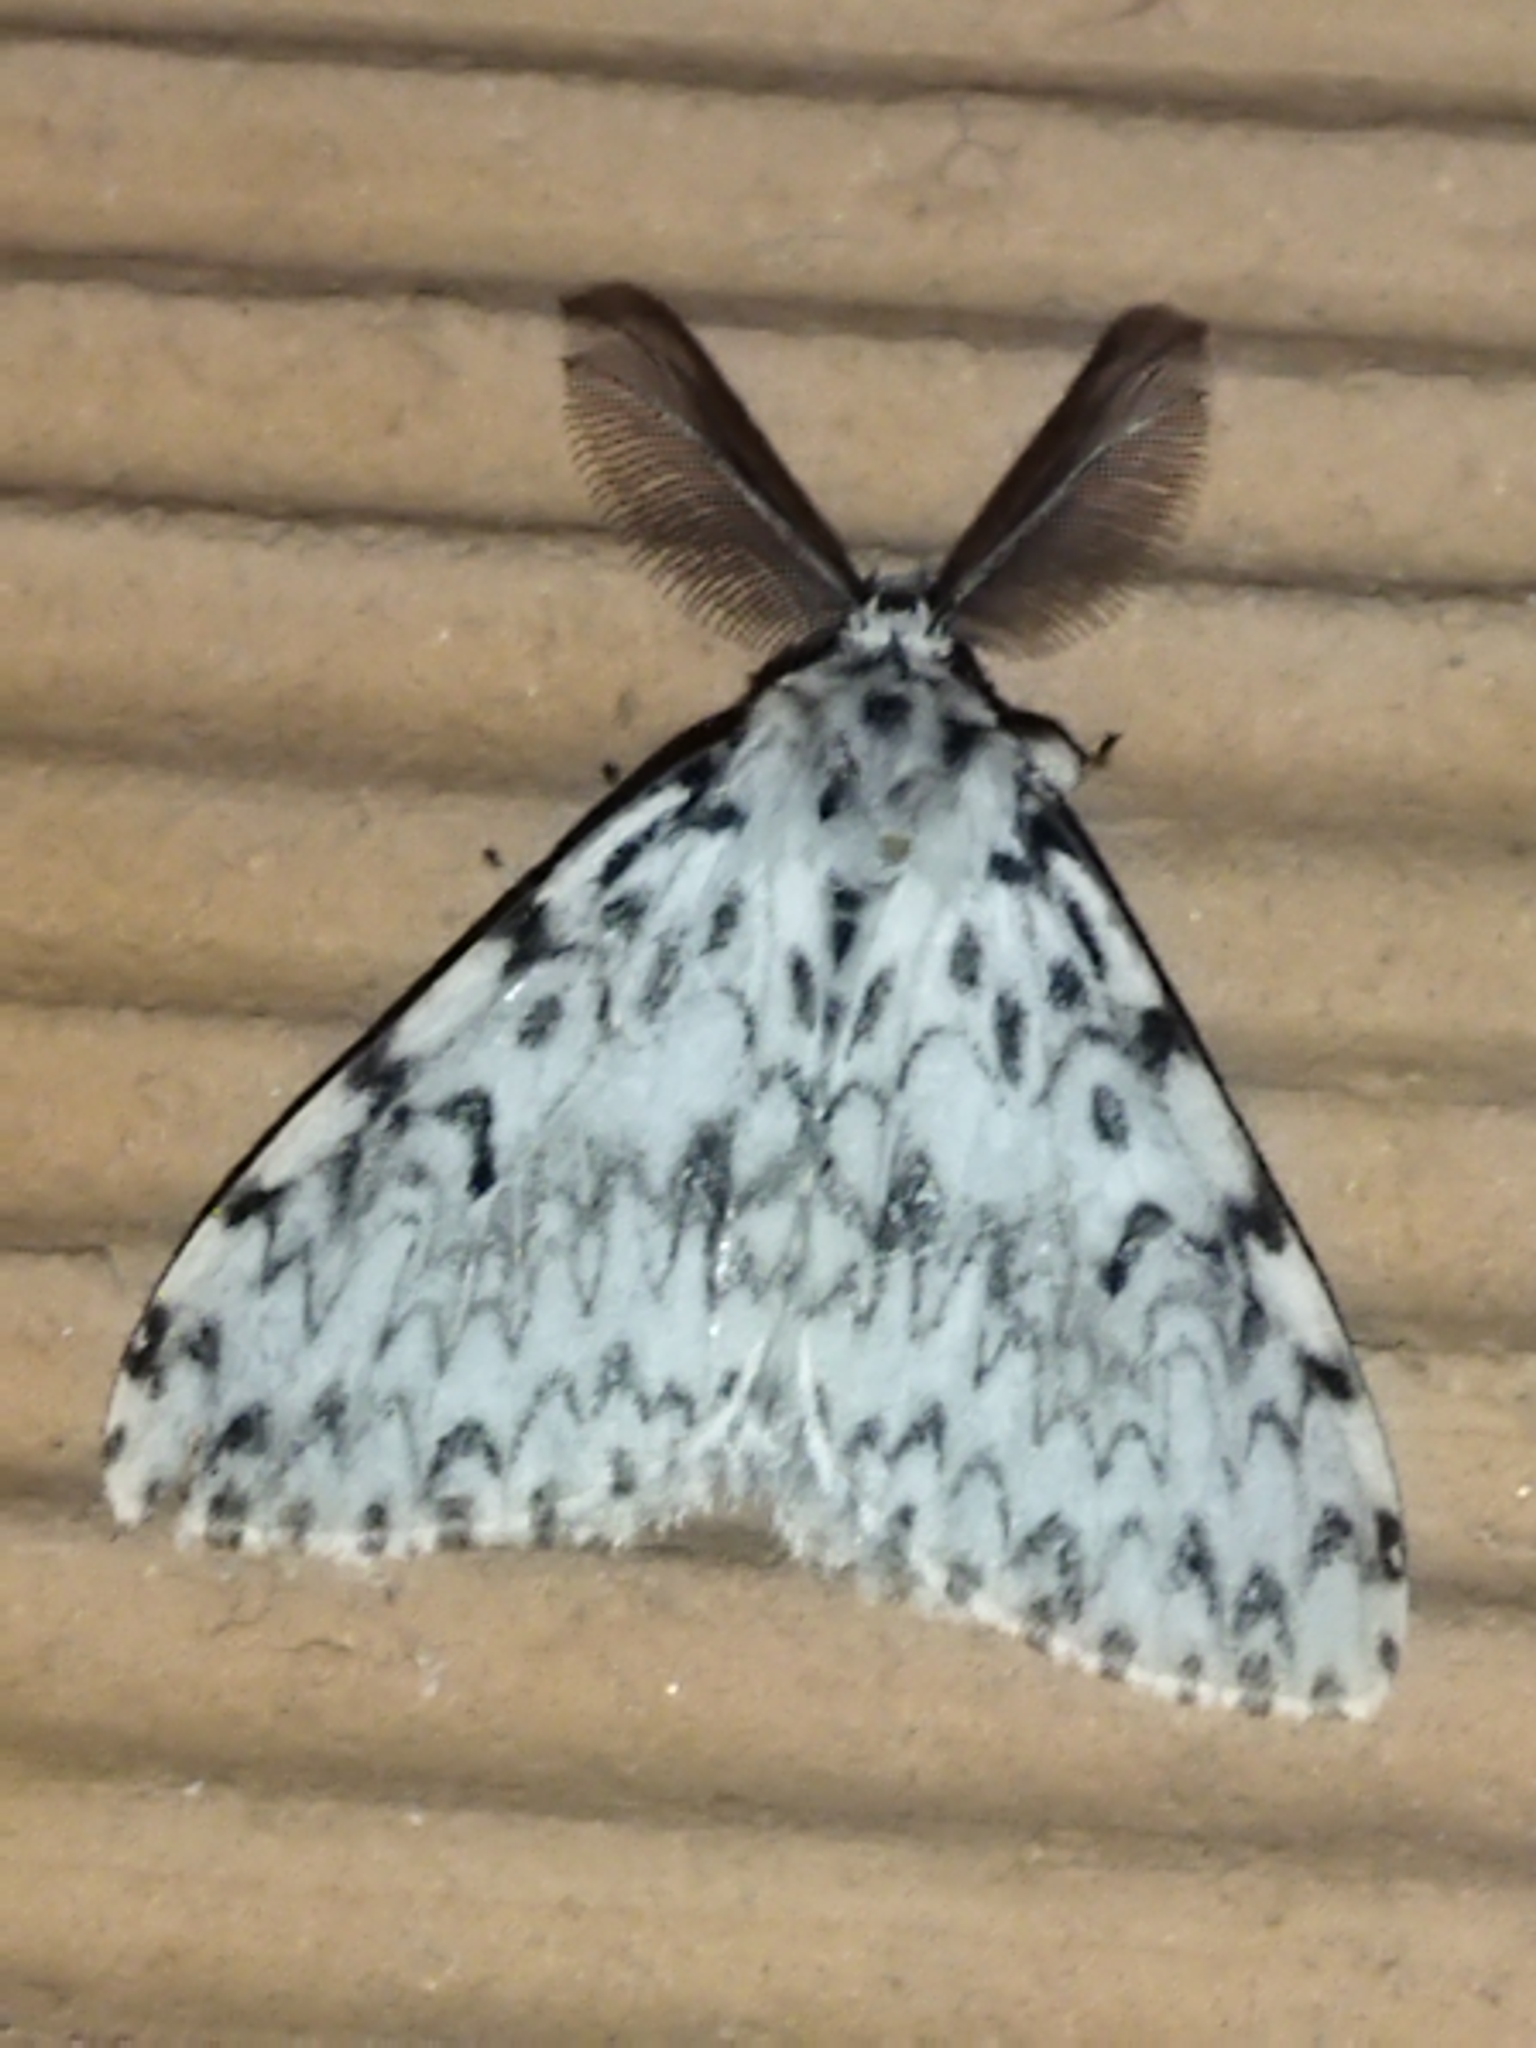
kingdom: Animalia
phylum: Arthropoda
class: Insecta
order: Lepidoptera
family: Erebidae
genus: Lymantria
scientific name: Lymantria monacha
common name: Black arches
